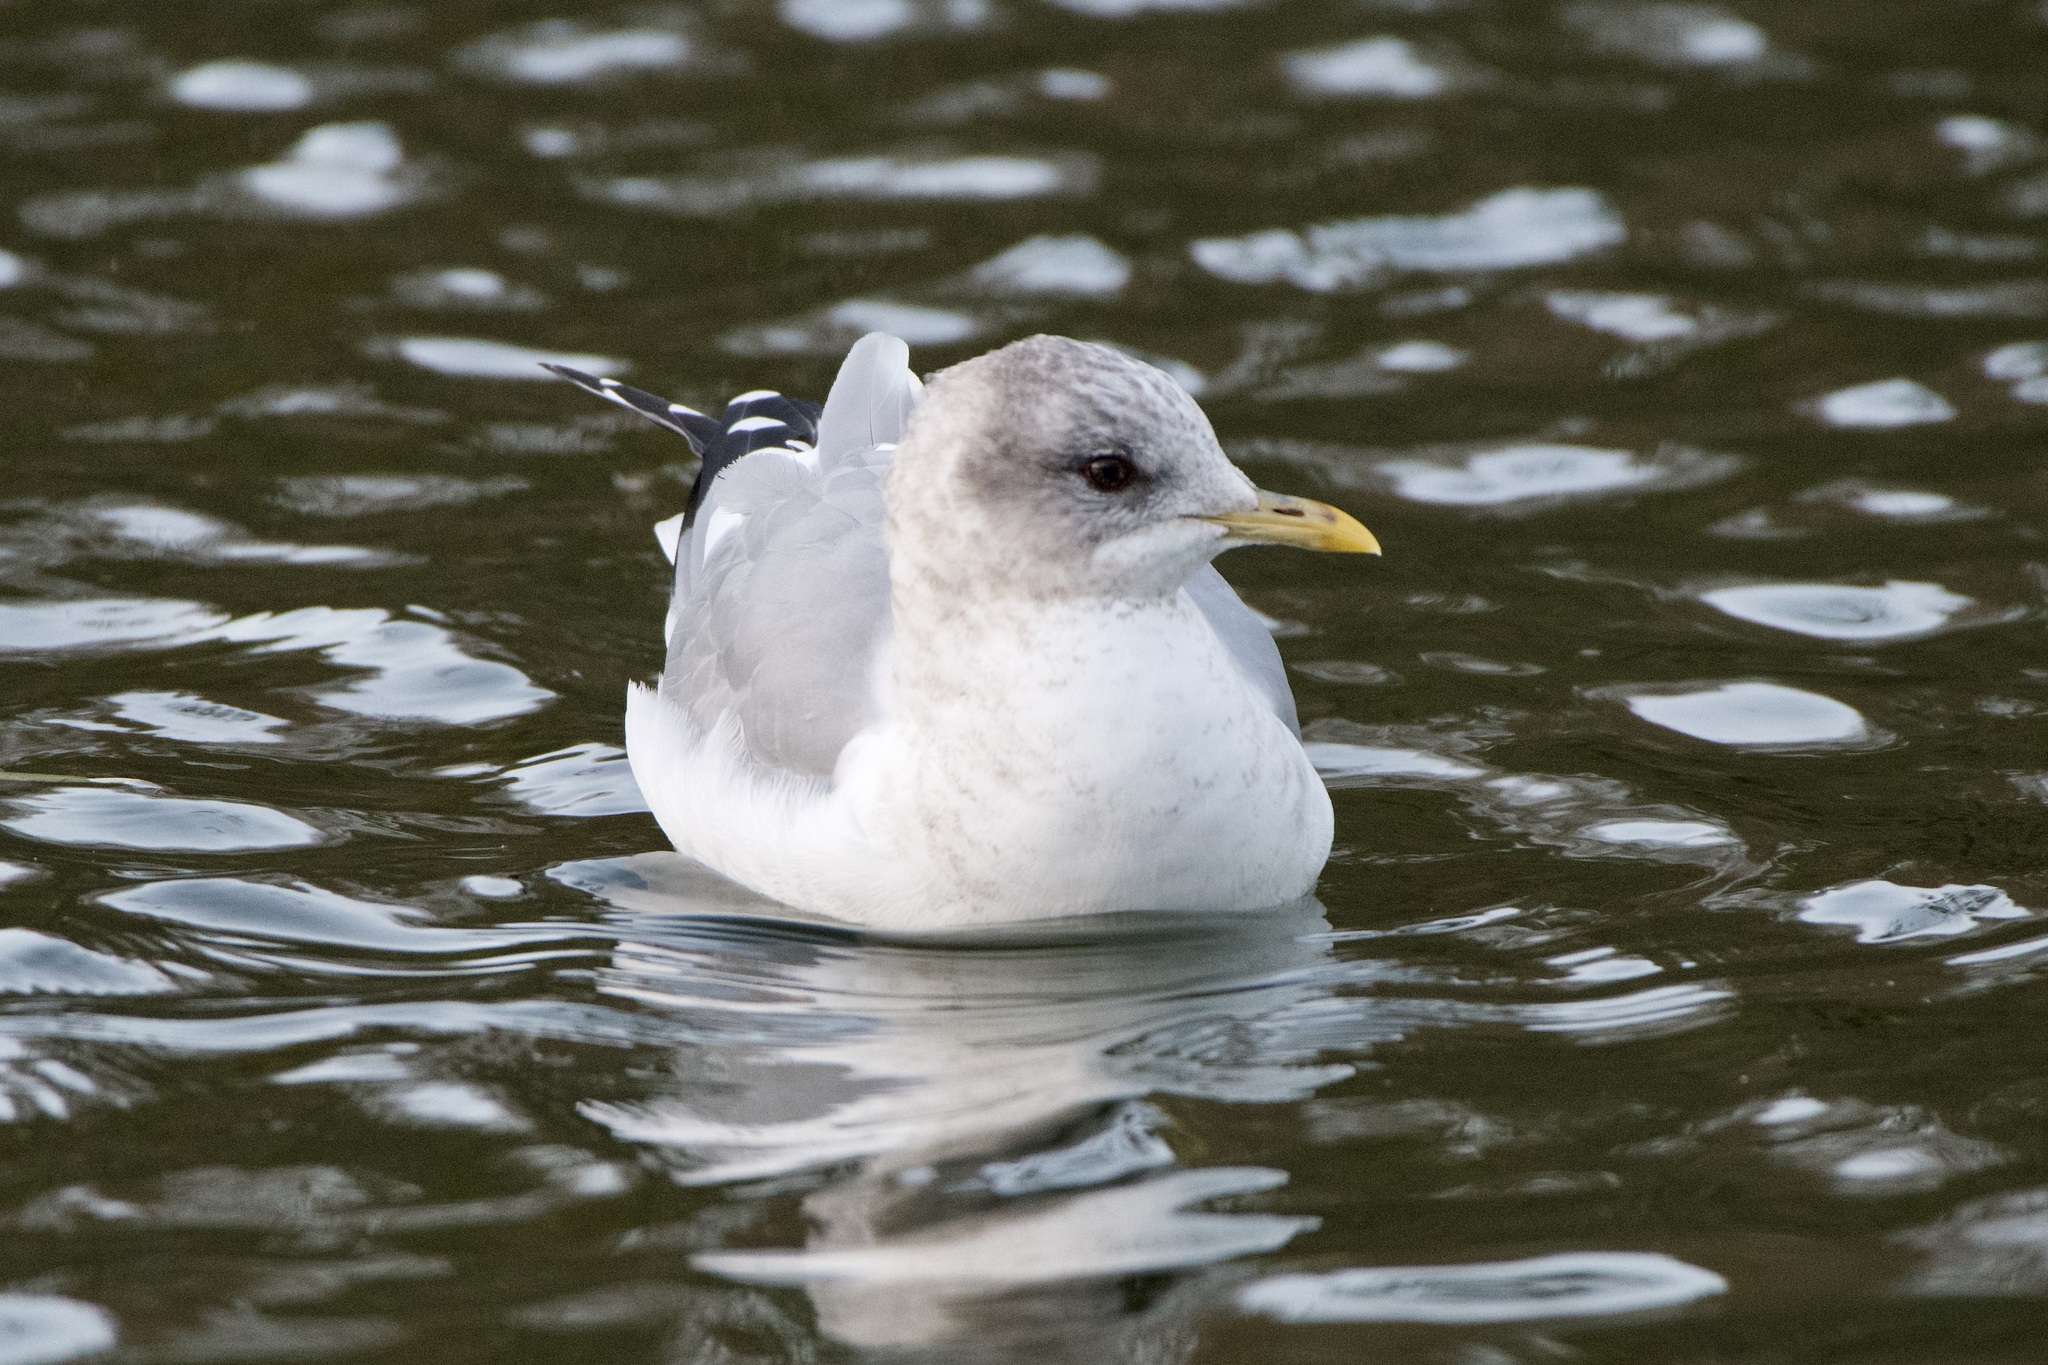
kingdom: Animalia
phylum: Chordata
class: Aves
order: Charadriiformes
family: Laridae
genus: Larus
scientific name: Larus brachyrhynchus
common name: Short-billed gull
